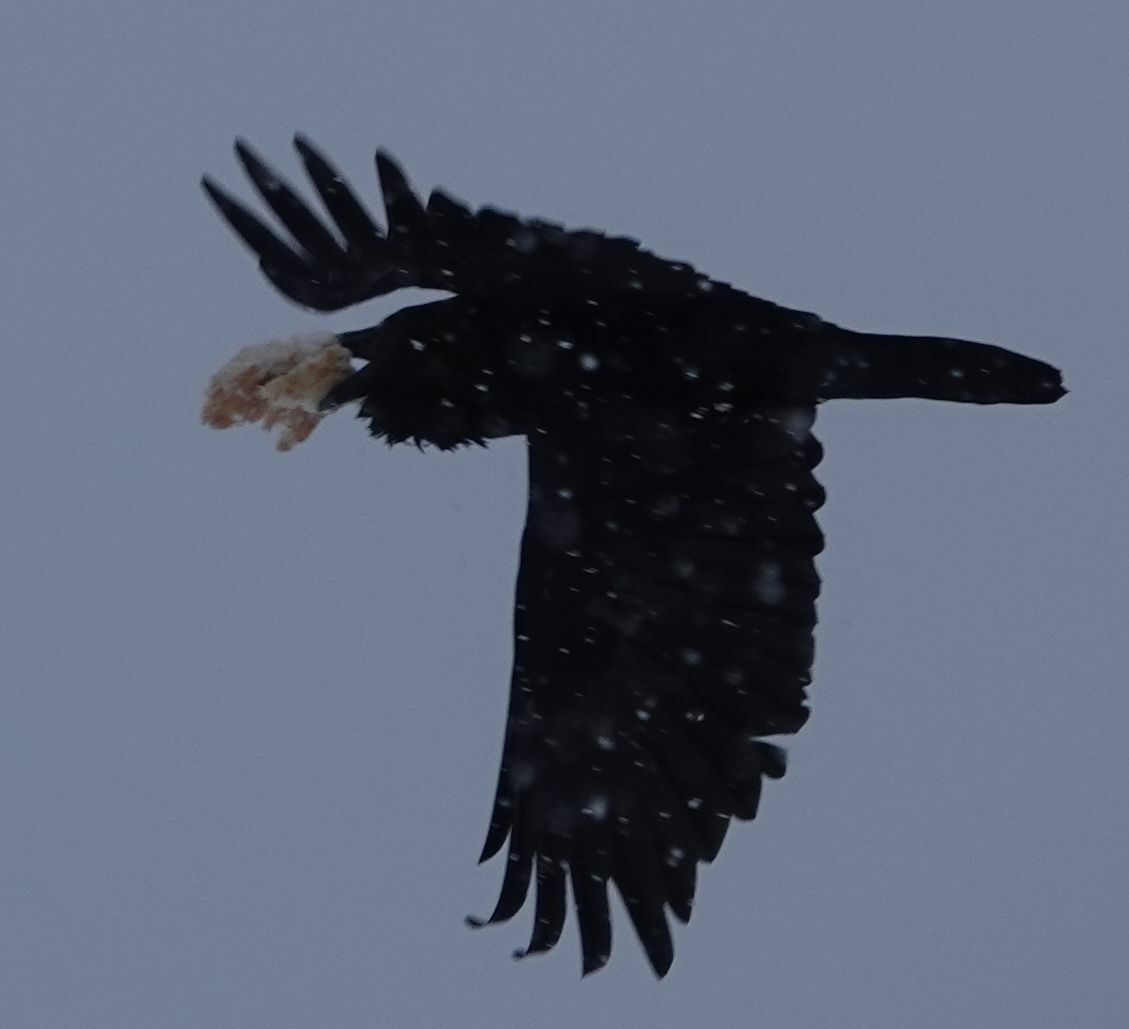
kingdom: Animalia
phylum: Chordata
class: Aves
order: Passeriformes
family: Corvidae
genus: Corvus
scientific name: Corvus corax
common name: Common raven
